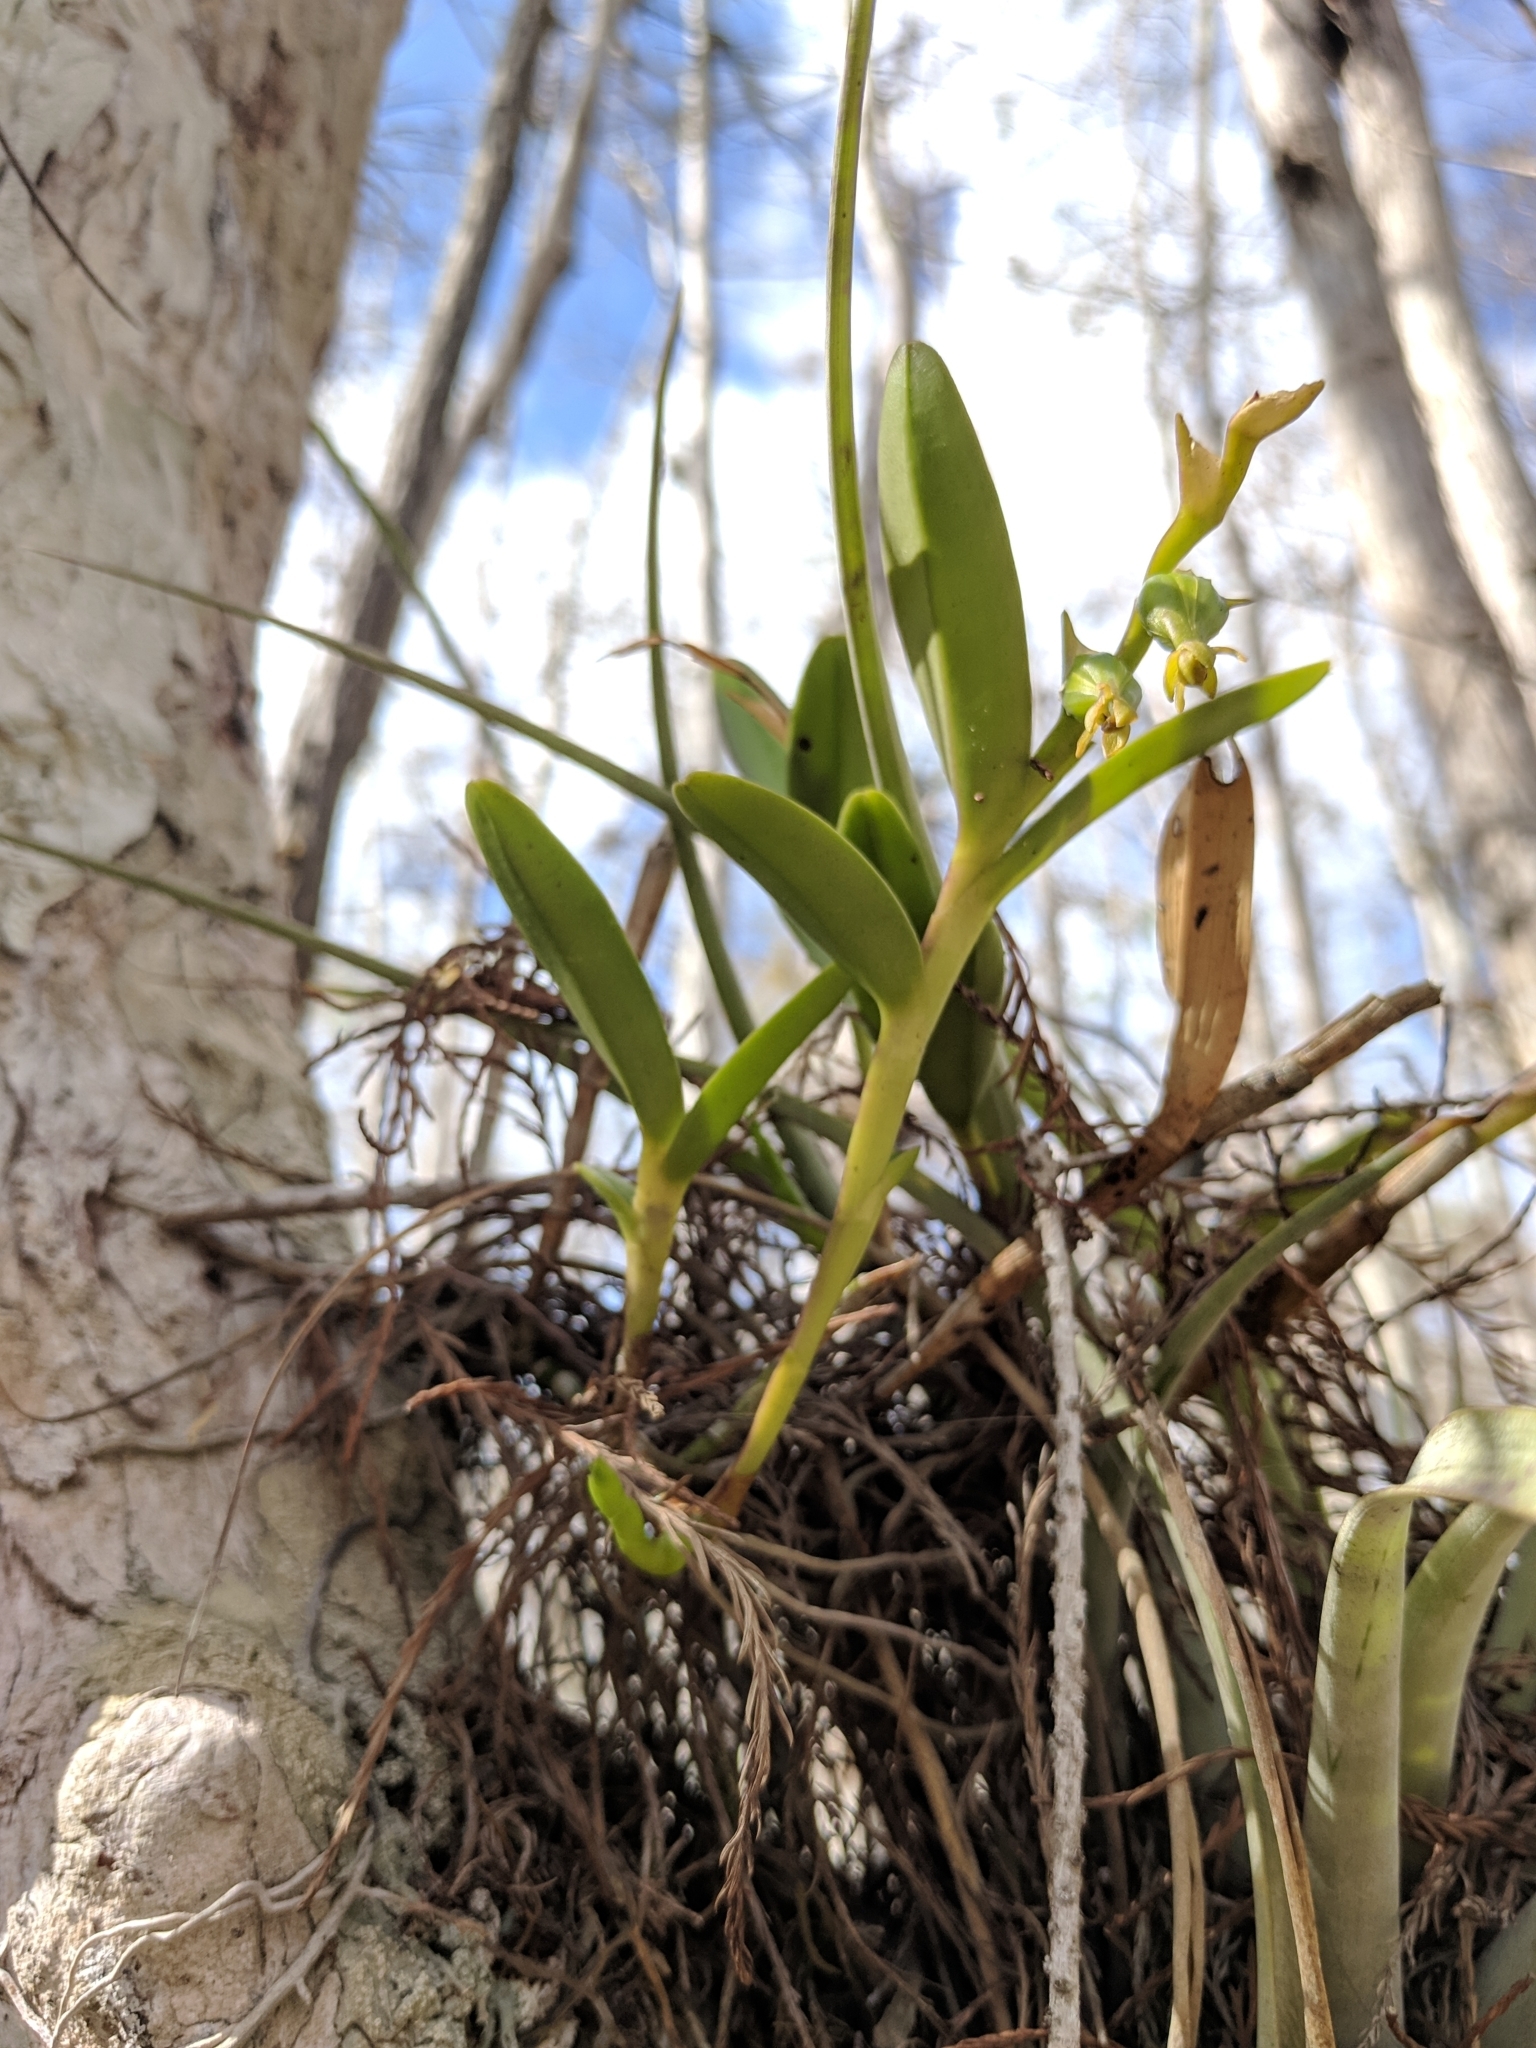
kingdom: Plantae
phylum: Tracheophyta
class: Liliopsida
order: Asparagales
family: Orchidaceae
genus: Epidendrum
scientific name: Epidendrum rigidum
